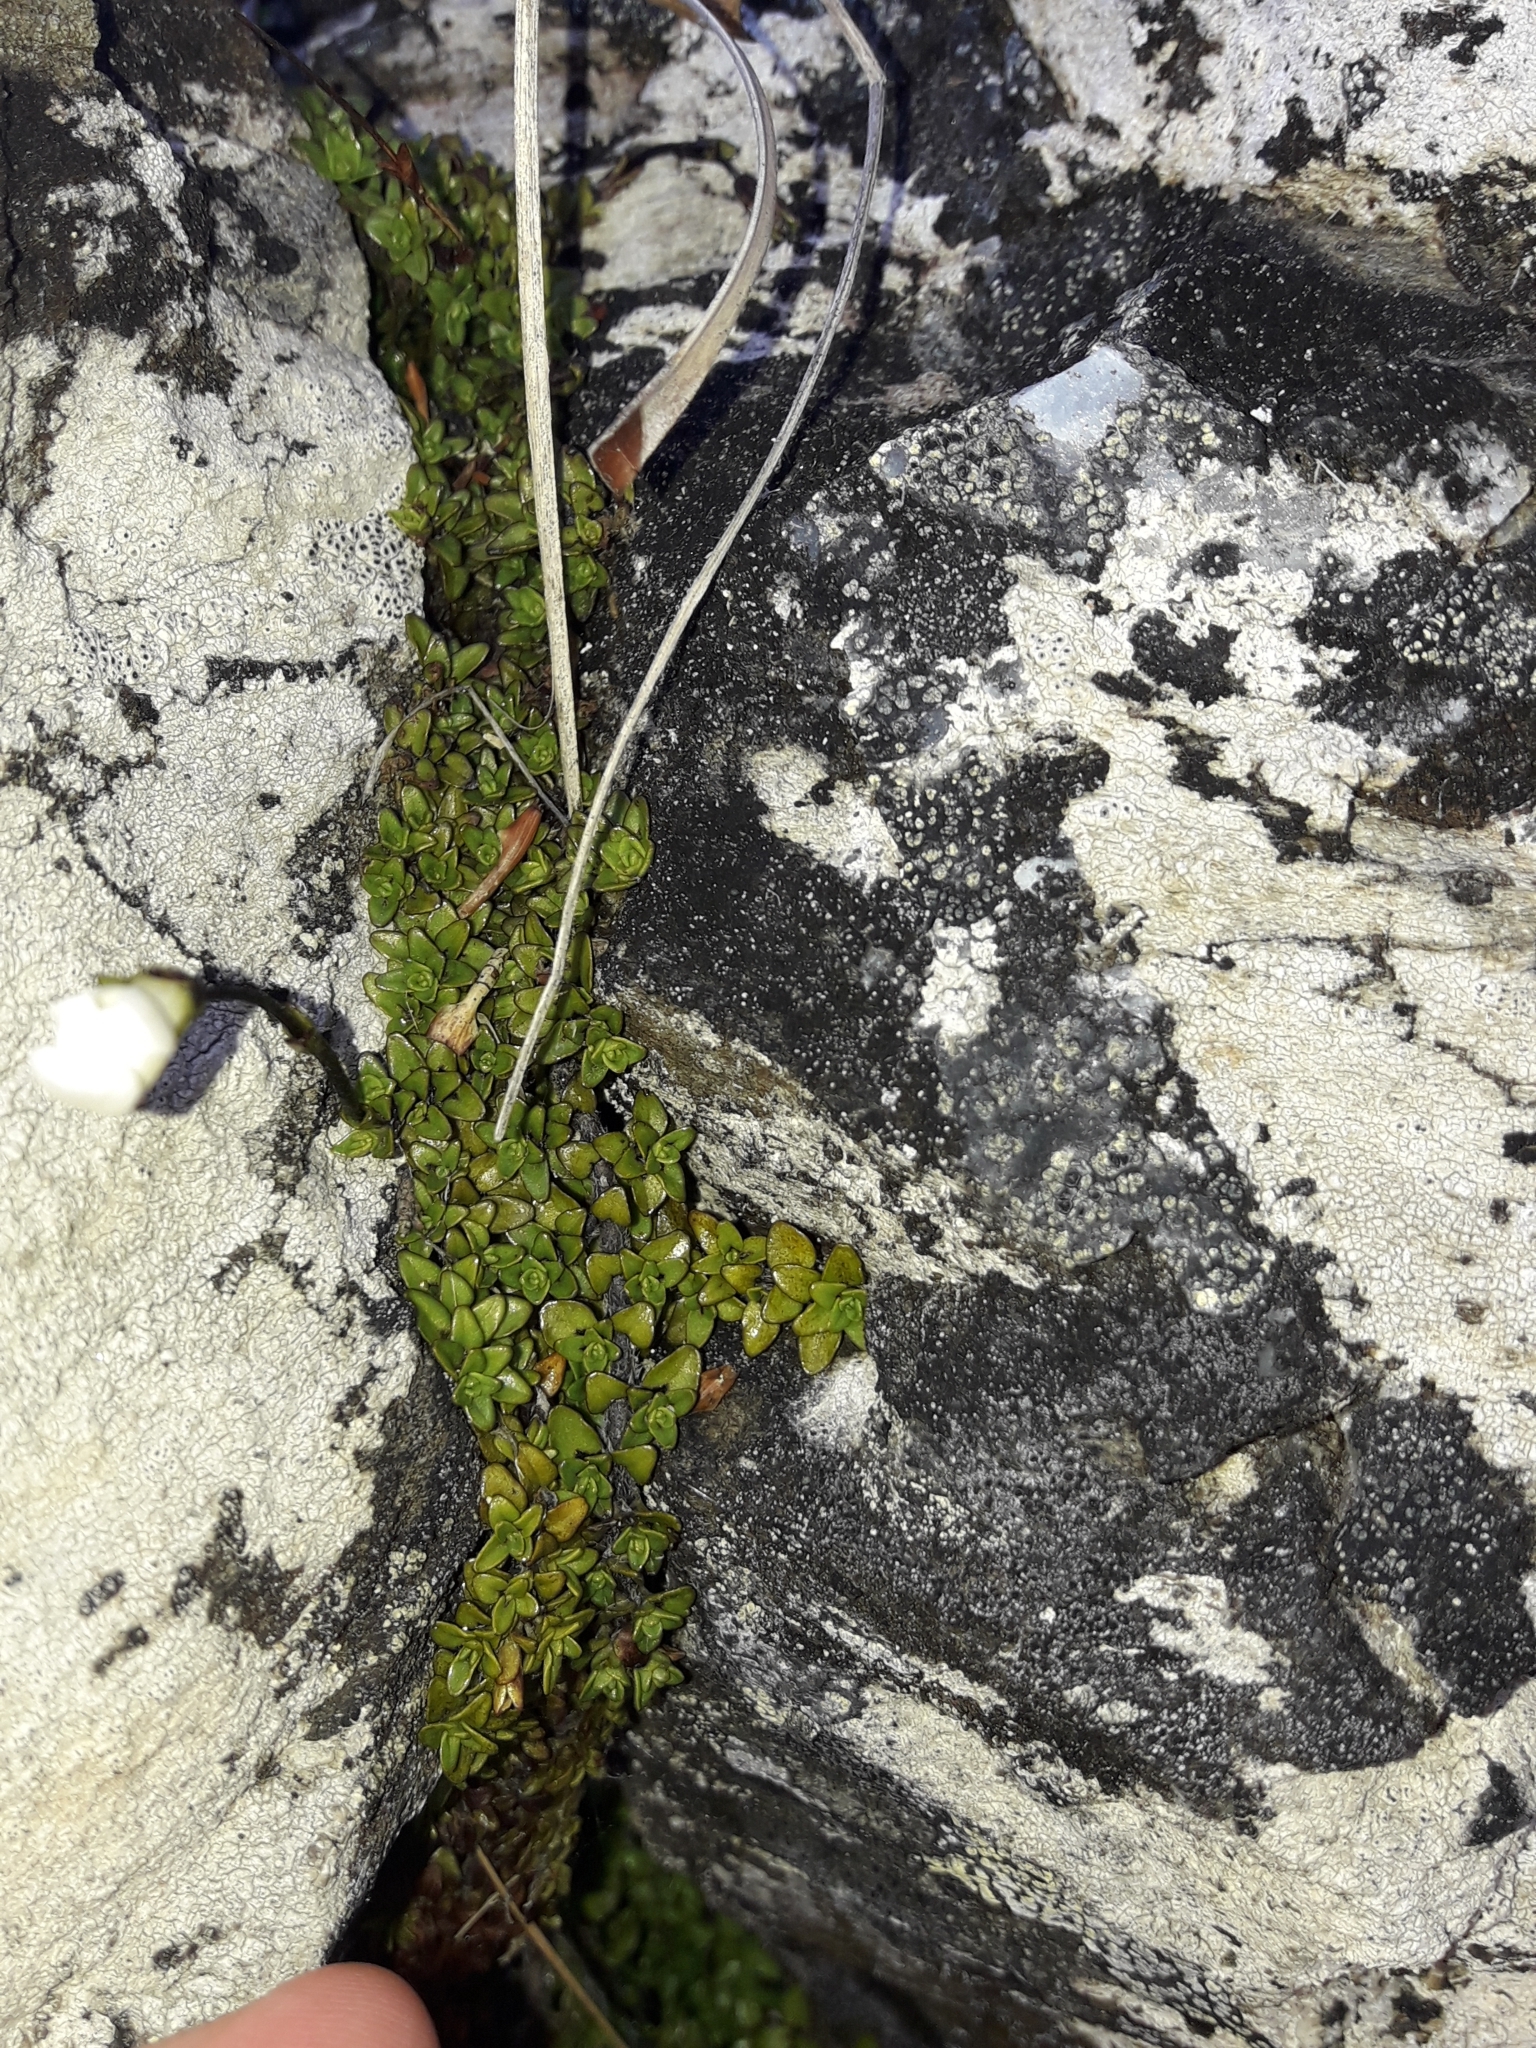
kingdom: Plantae
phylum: Tracheophyta
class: Magnoliopsida
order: Lamiales
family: Plantaginaceae
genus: Ourisia
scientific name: Ourisia caespitosa
